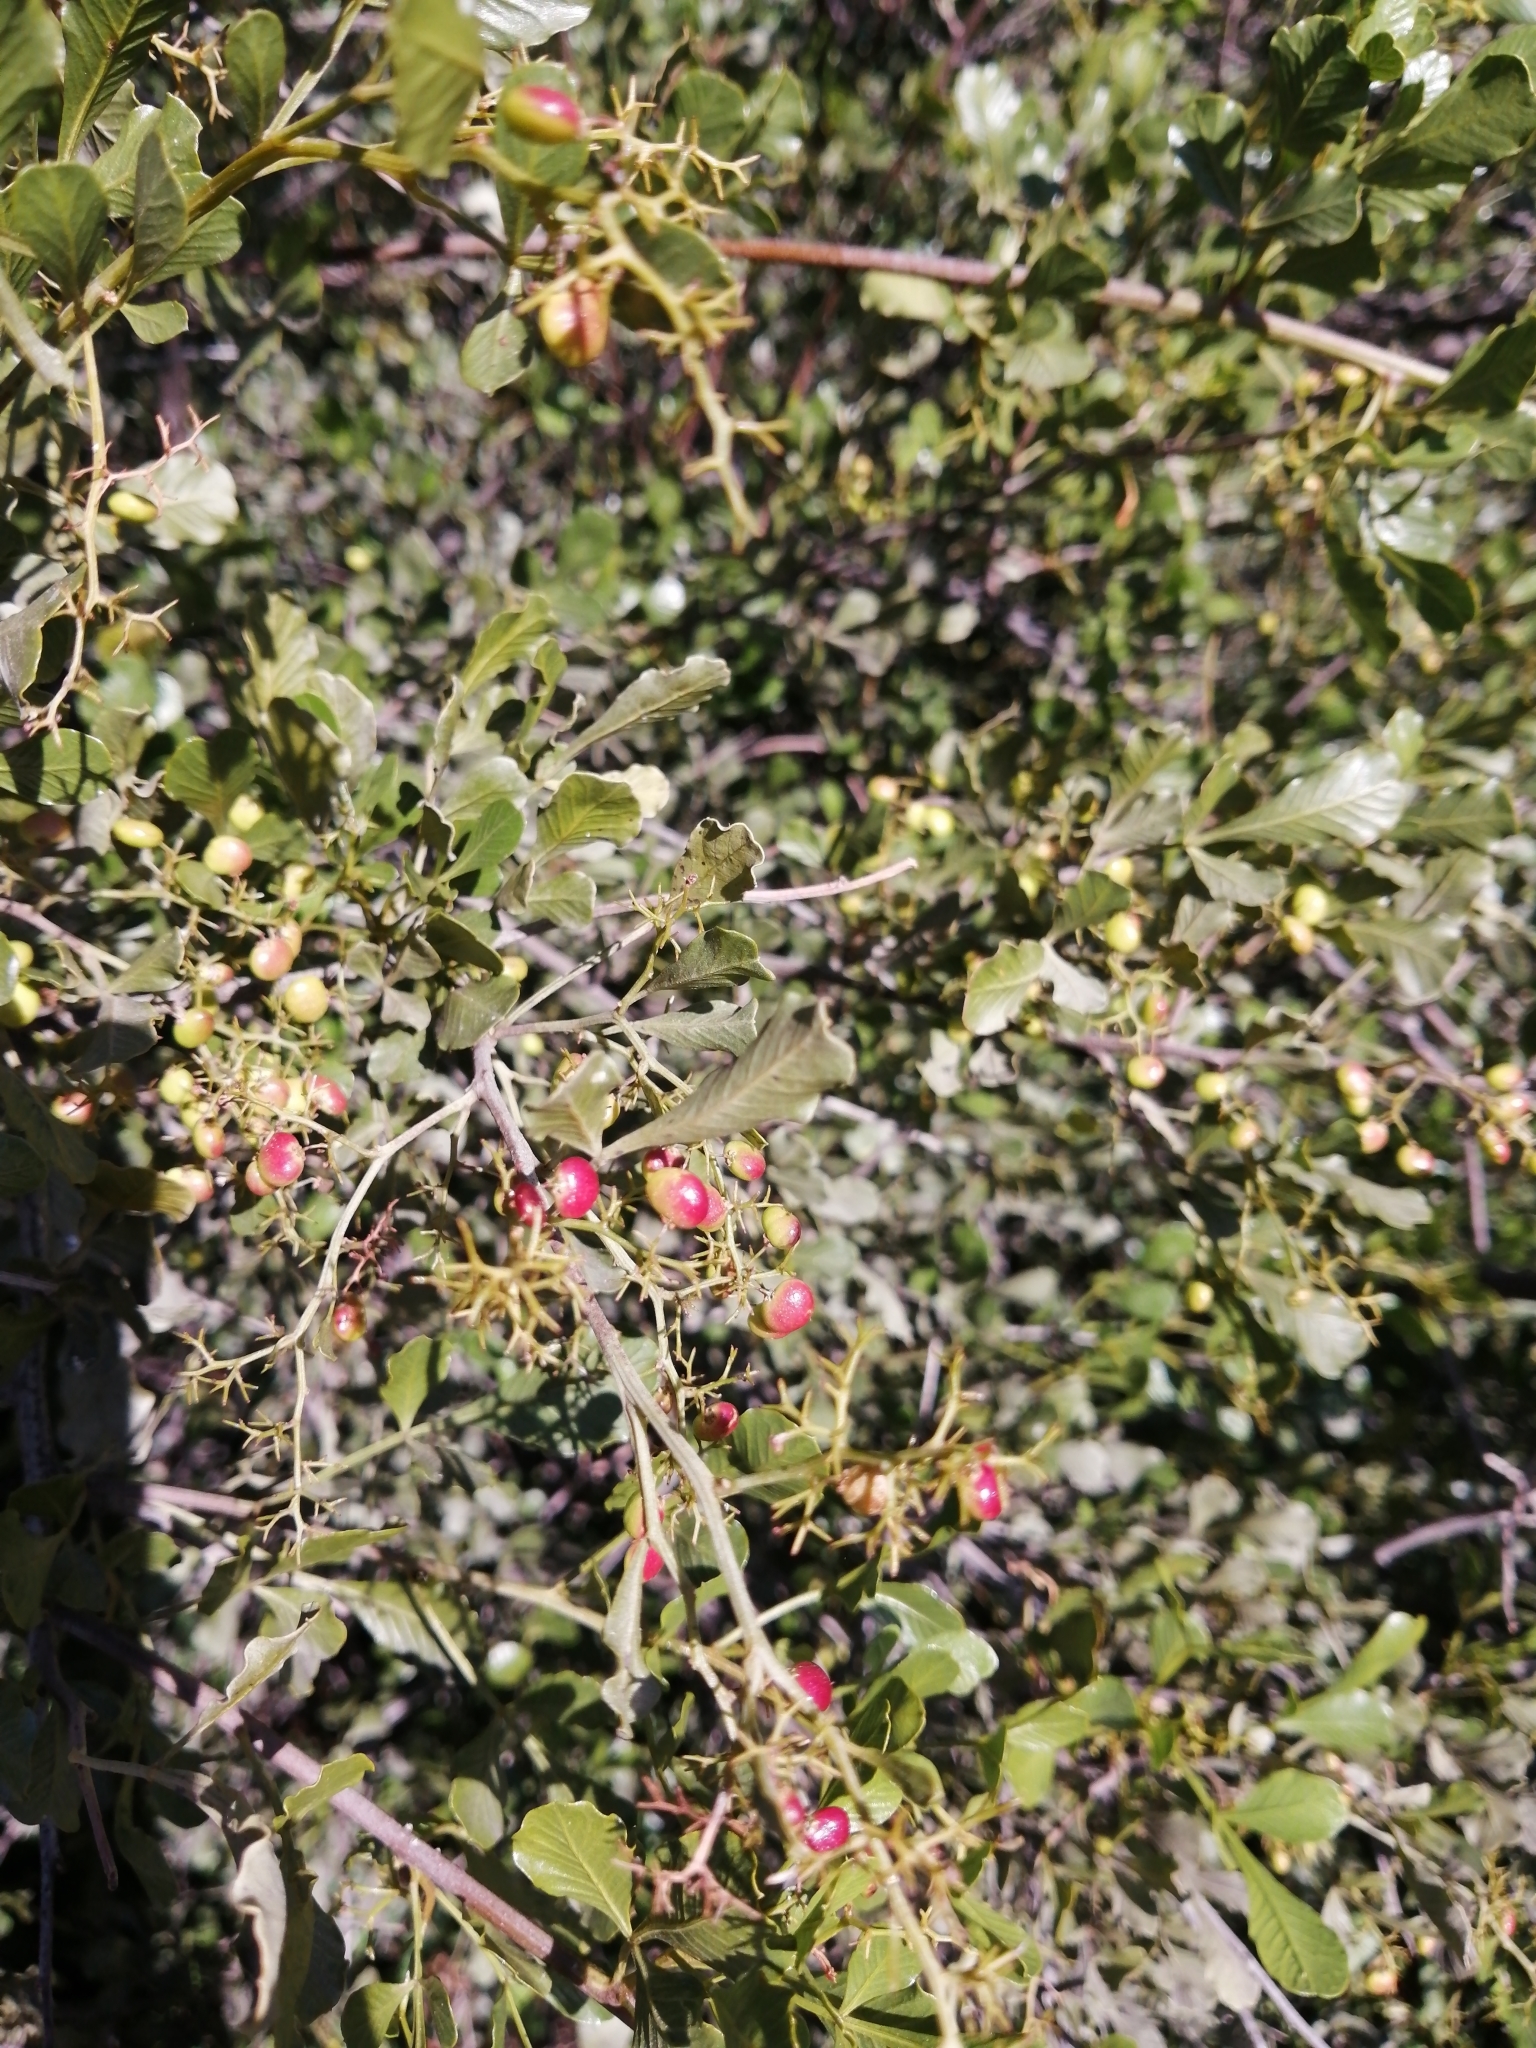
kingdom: Plantae
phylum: Tracheophyta
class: Magnoliopsida
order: Sapindales
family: Anacardiaceae
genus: Searsia
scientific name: Searsia undulata
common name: Namaqua kunibush
